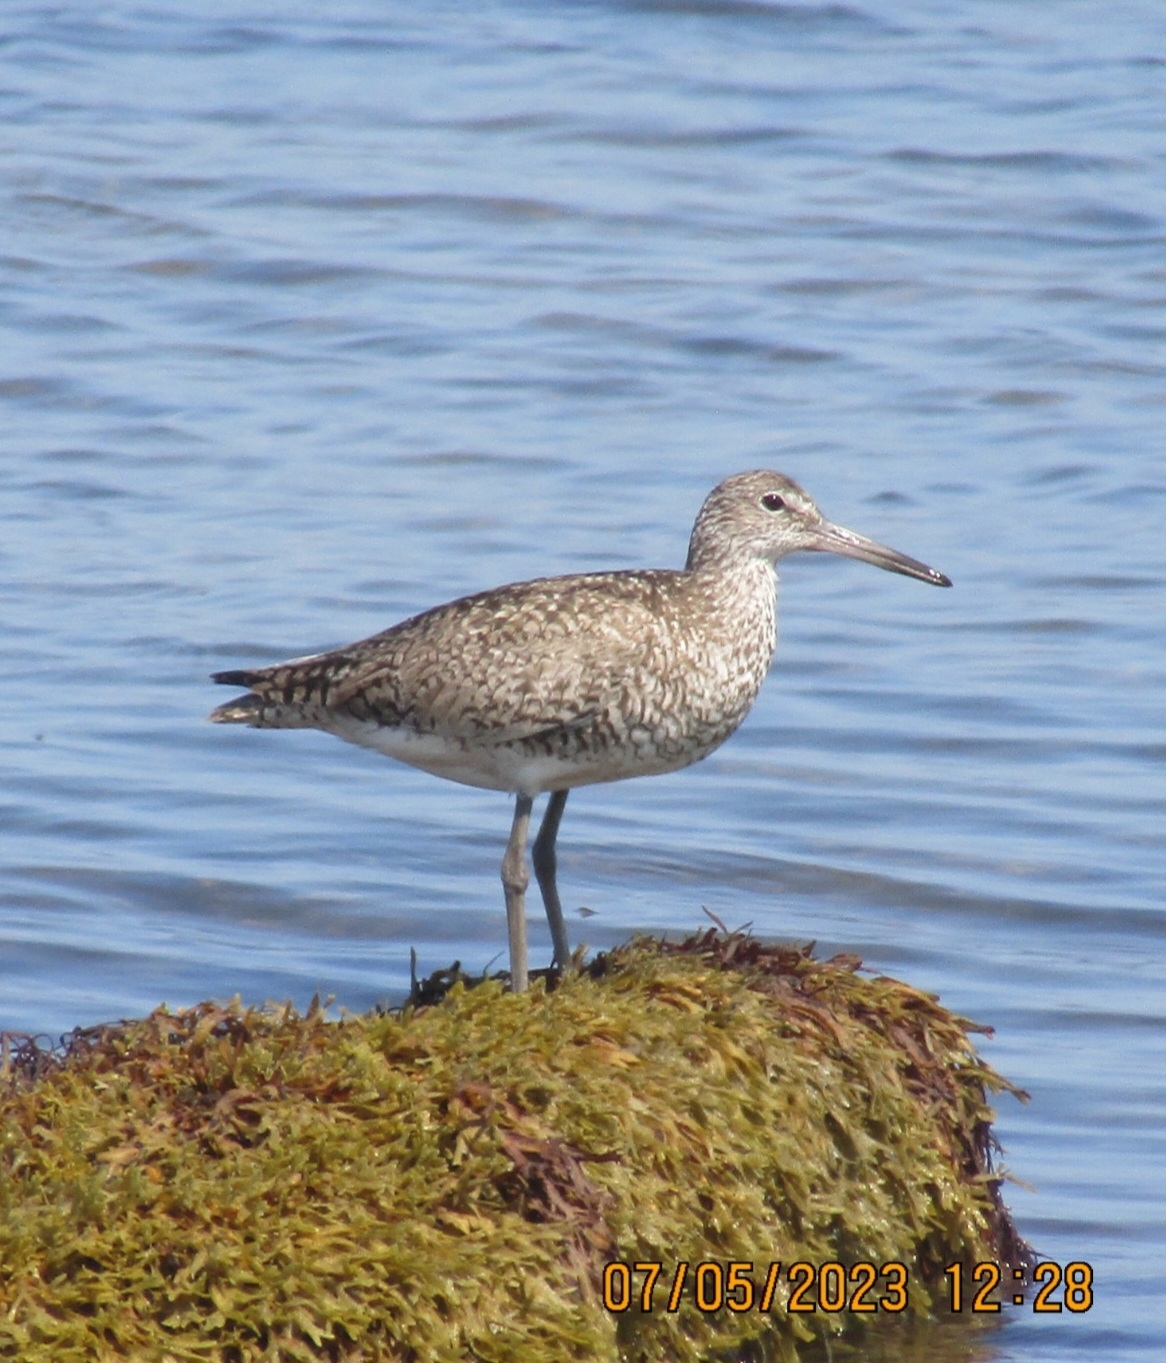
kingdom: Animalia
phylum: Chordata
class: Aves
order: Charadriiformes
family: Scolopacidae
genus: Tringa
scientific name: Tringa semipalmata
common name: Willet
